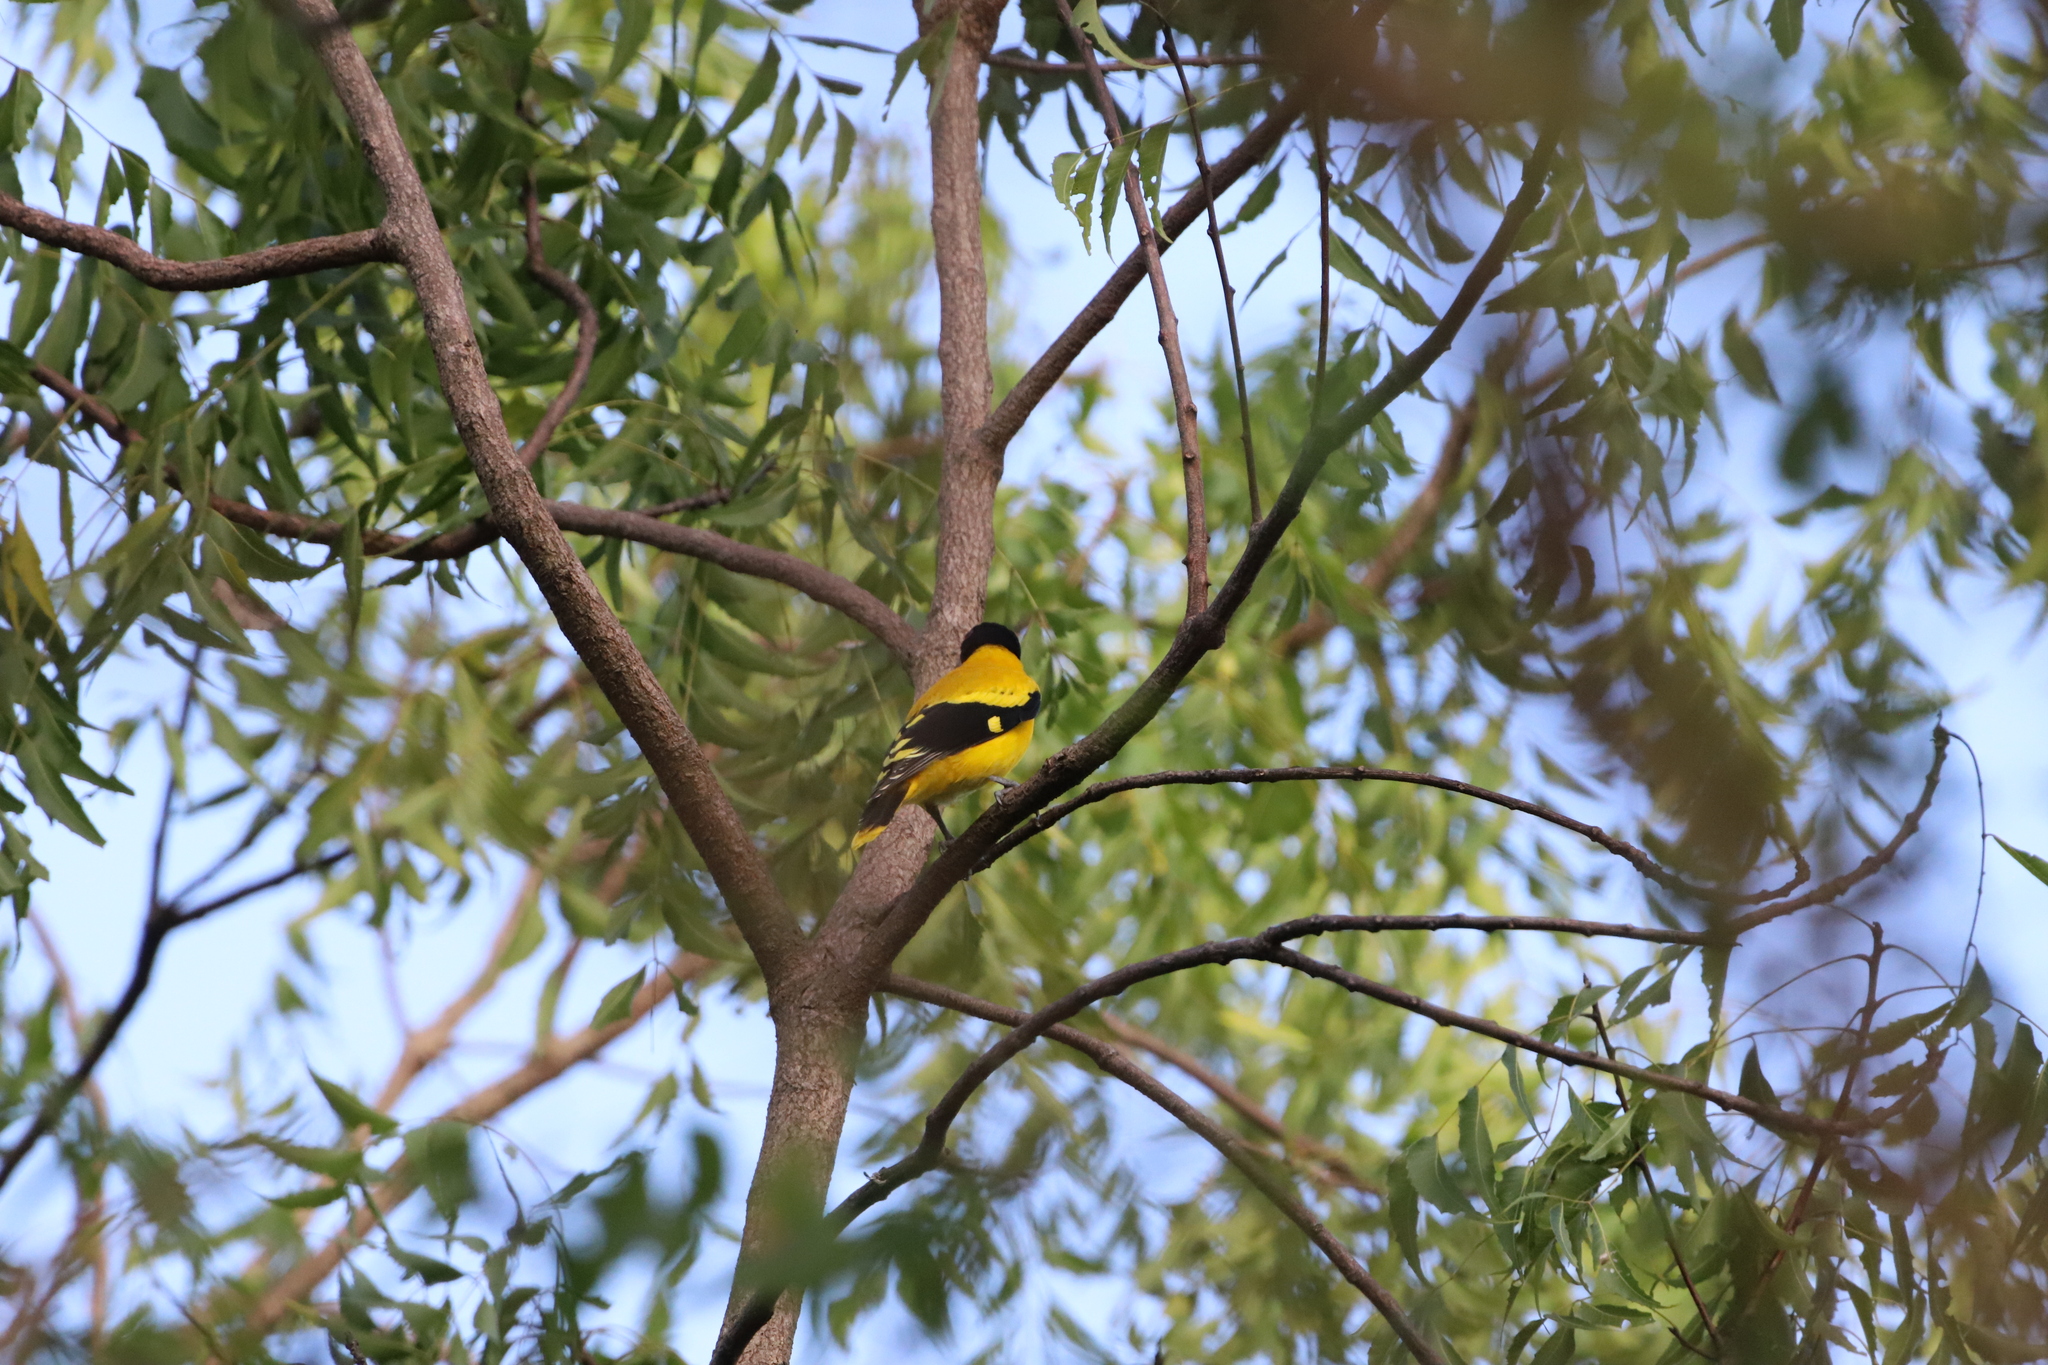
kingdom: Animalia
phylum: Chordata
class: Aves
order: Passeriformes
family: Oriolidae
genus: Oriolus
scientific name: Oriolus xanthornus
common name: Black-hooded oriole
